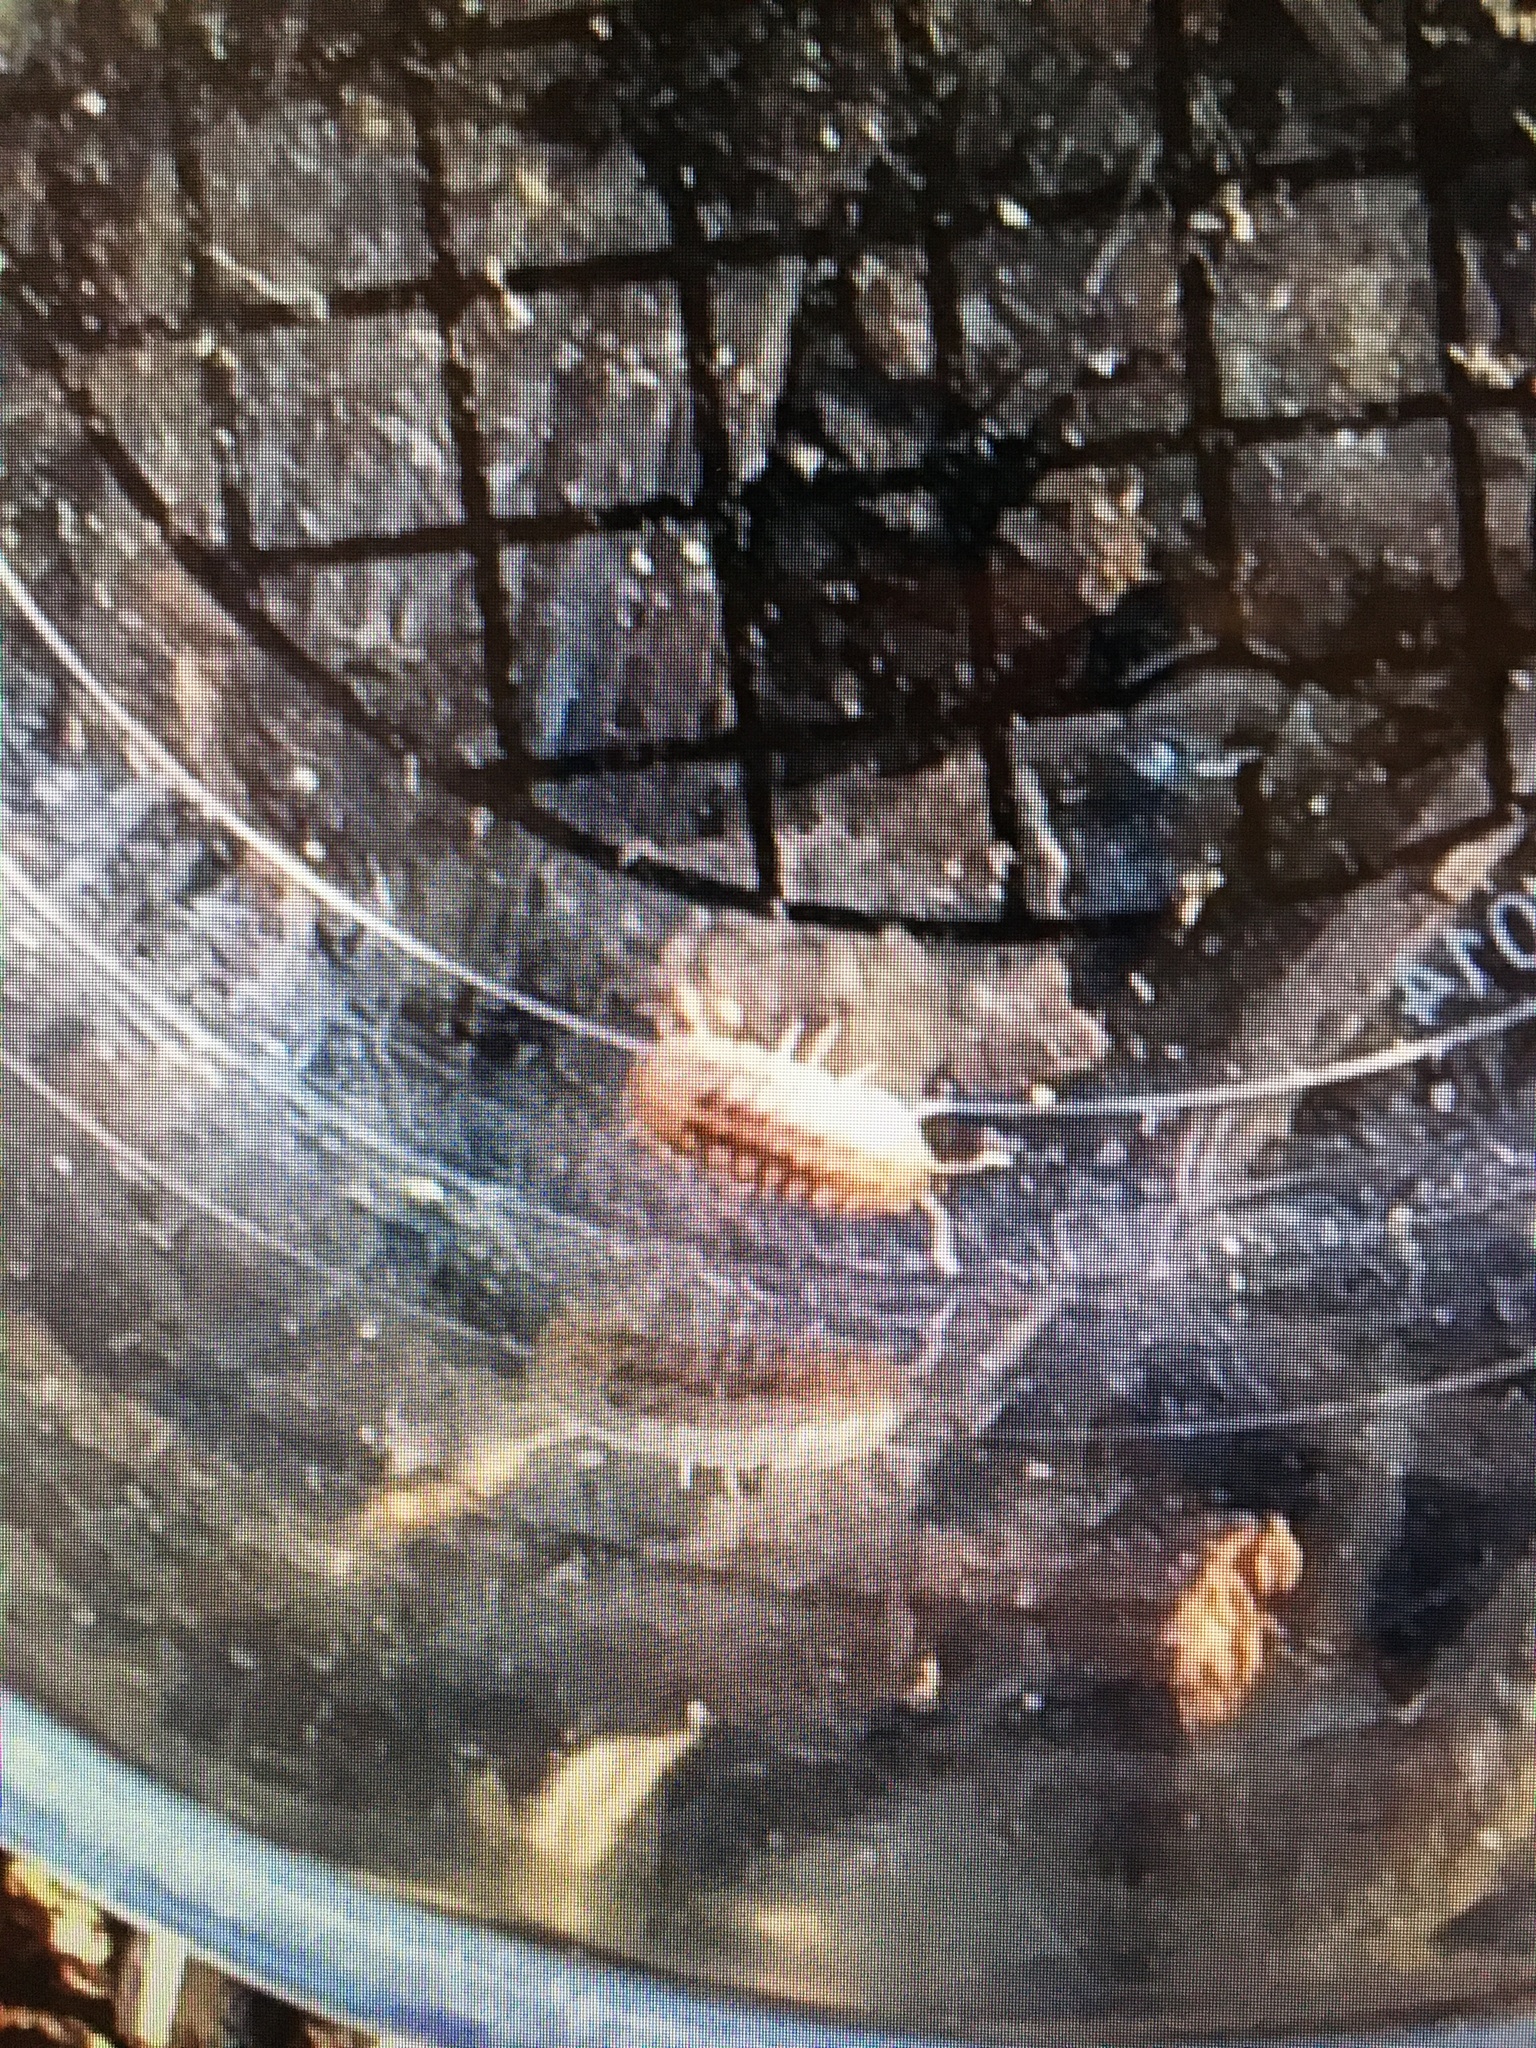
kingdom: Animalia
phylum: Arthropoda
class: Malacostraca
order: Isopoda
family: Armadillidiidae
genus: Armadillidium
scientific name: Armadillidium nasatum
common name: Isopod
